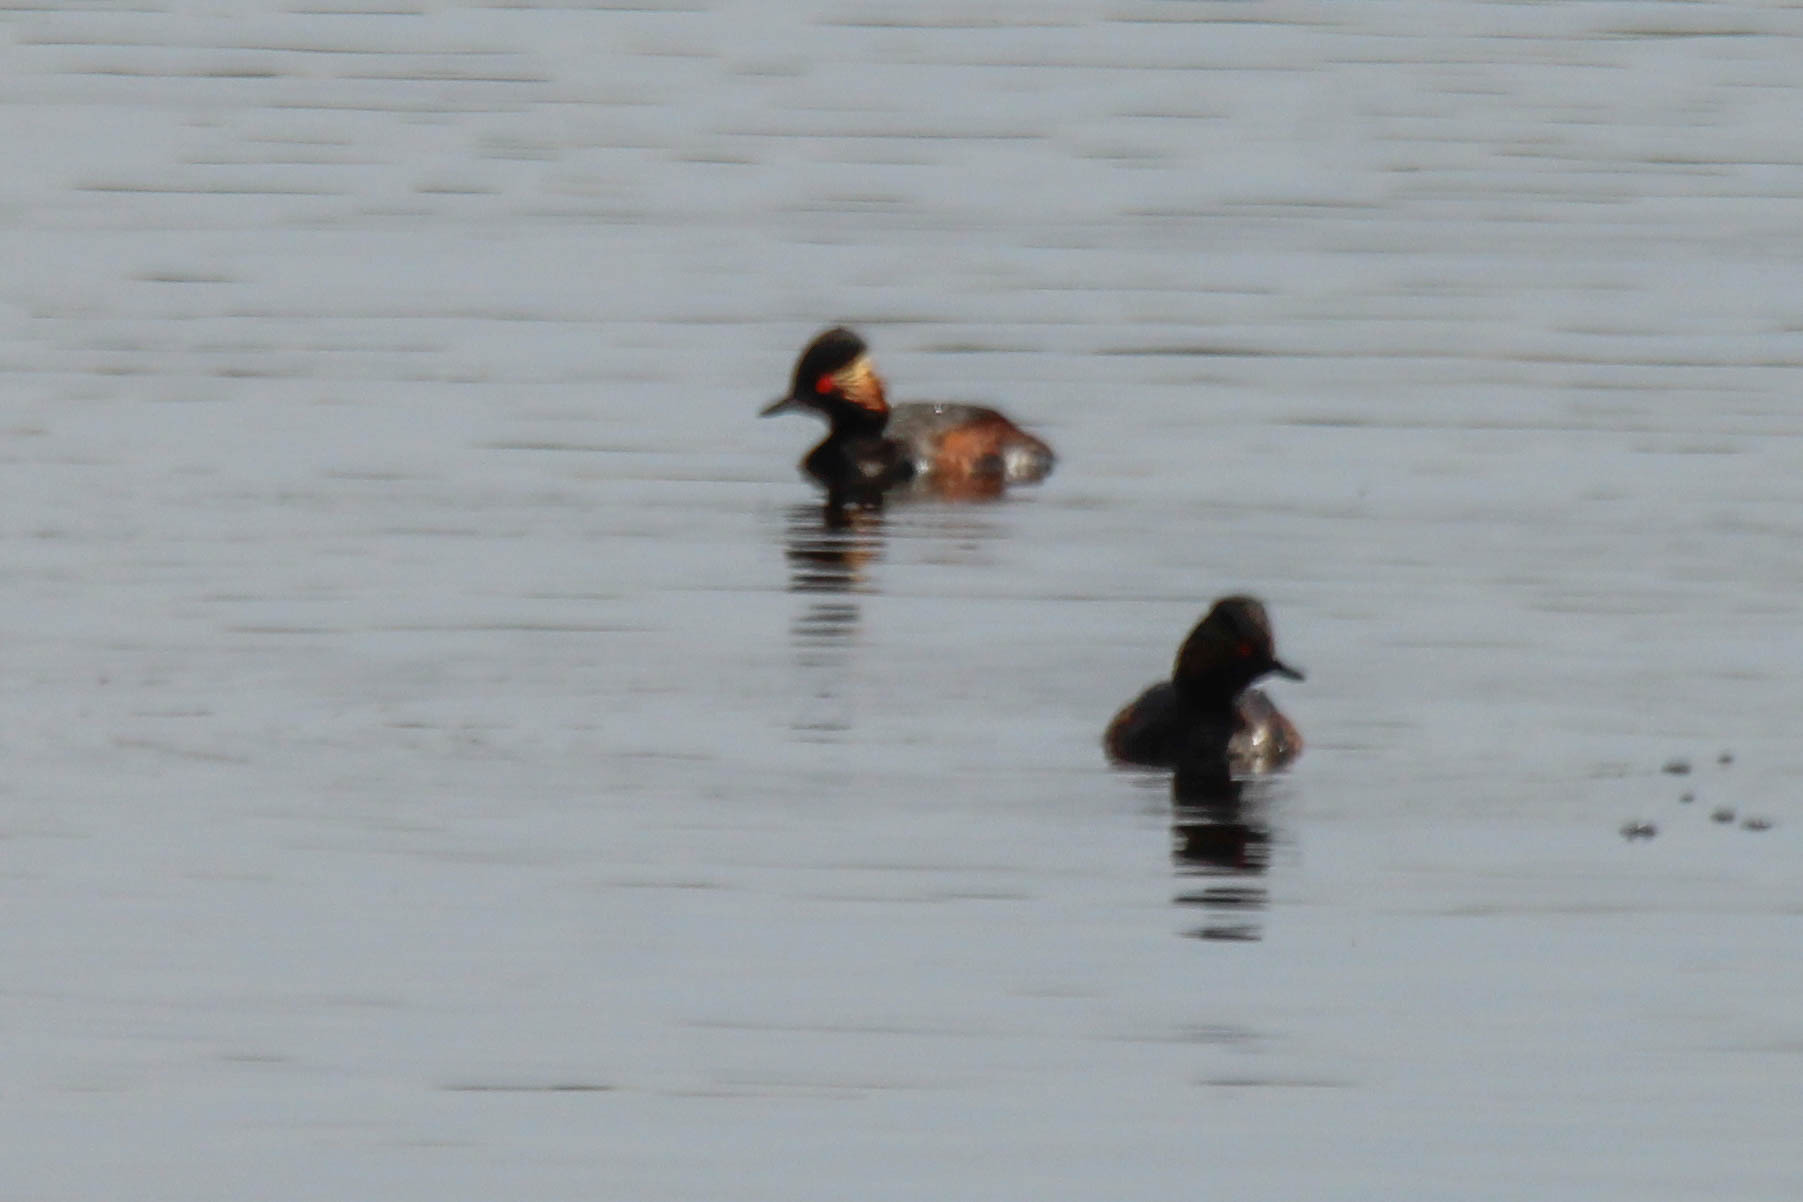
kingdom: Animalia
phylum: Chordata
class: Aves
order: Podicipediformes
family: Podicipedidae
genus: Podiceps
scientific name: Podiceps nigricollis
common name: Black-necked grebe
